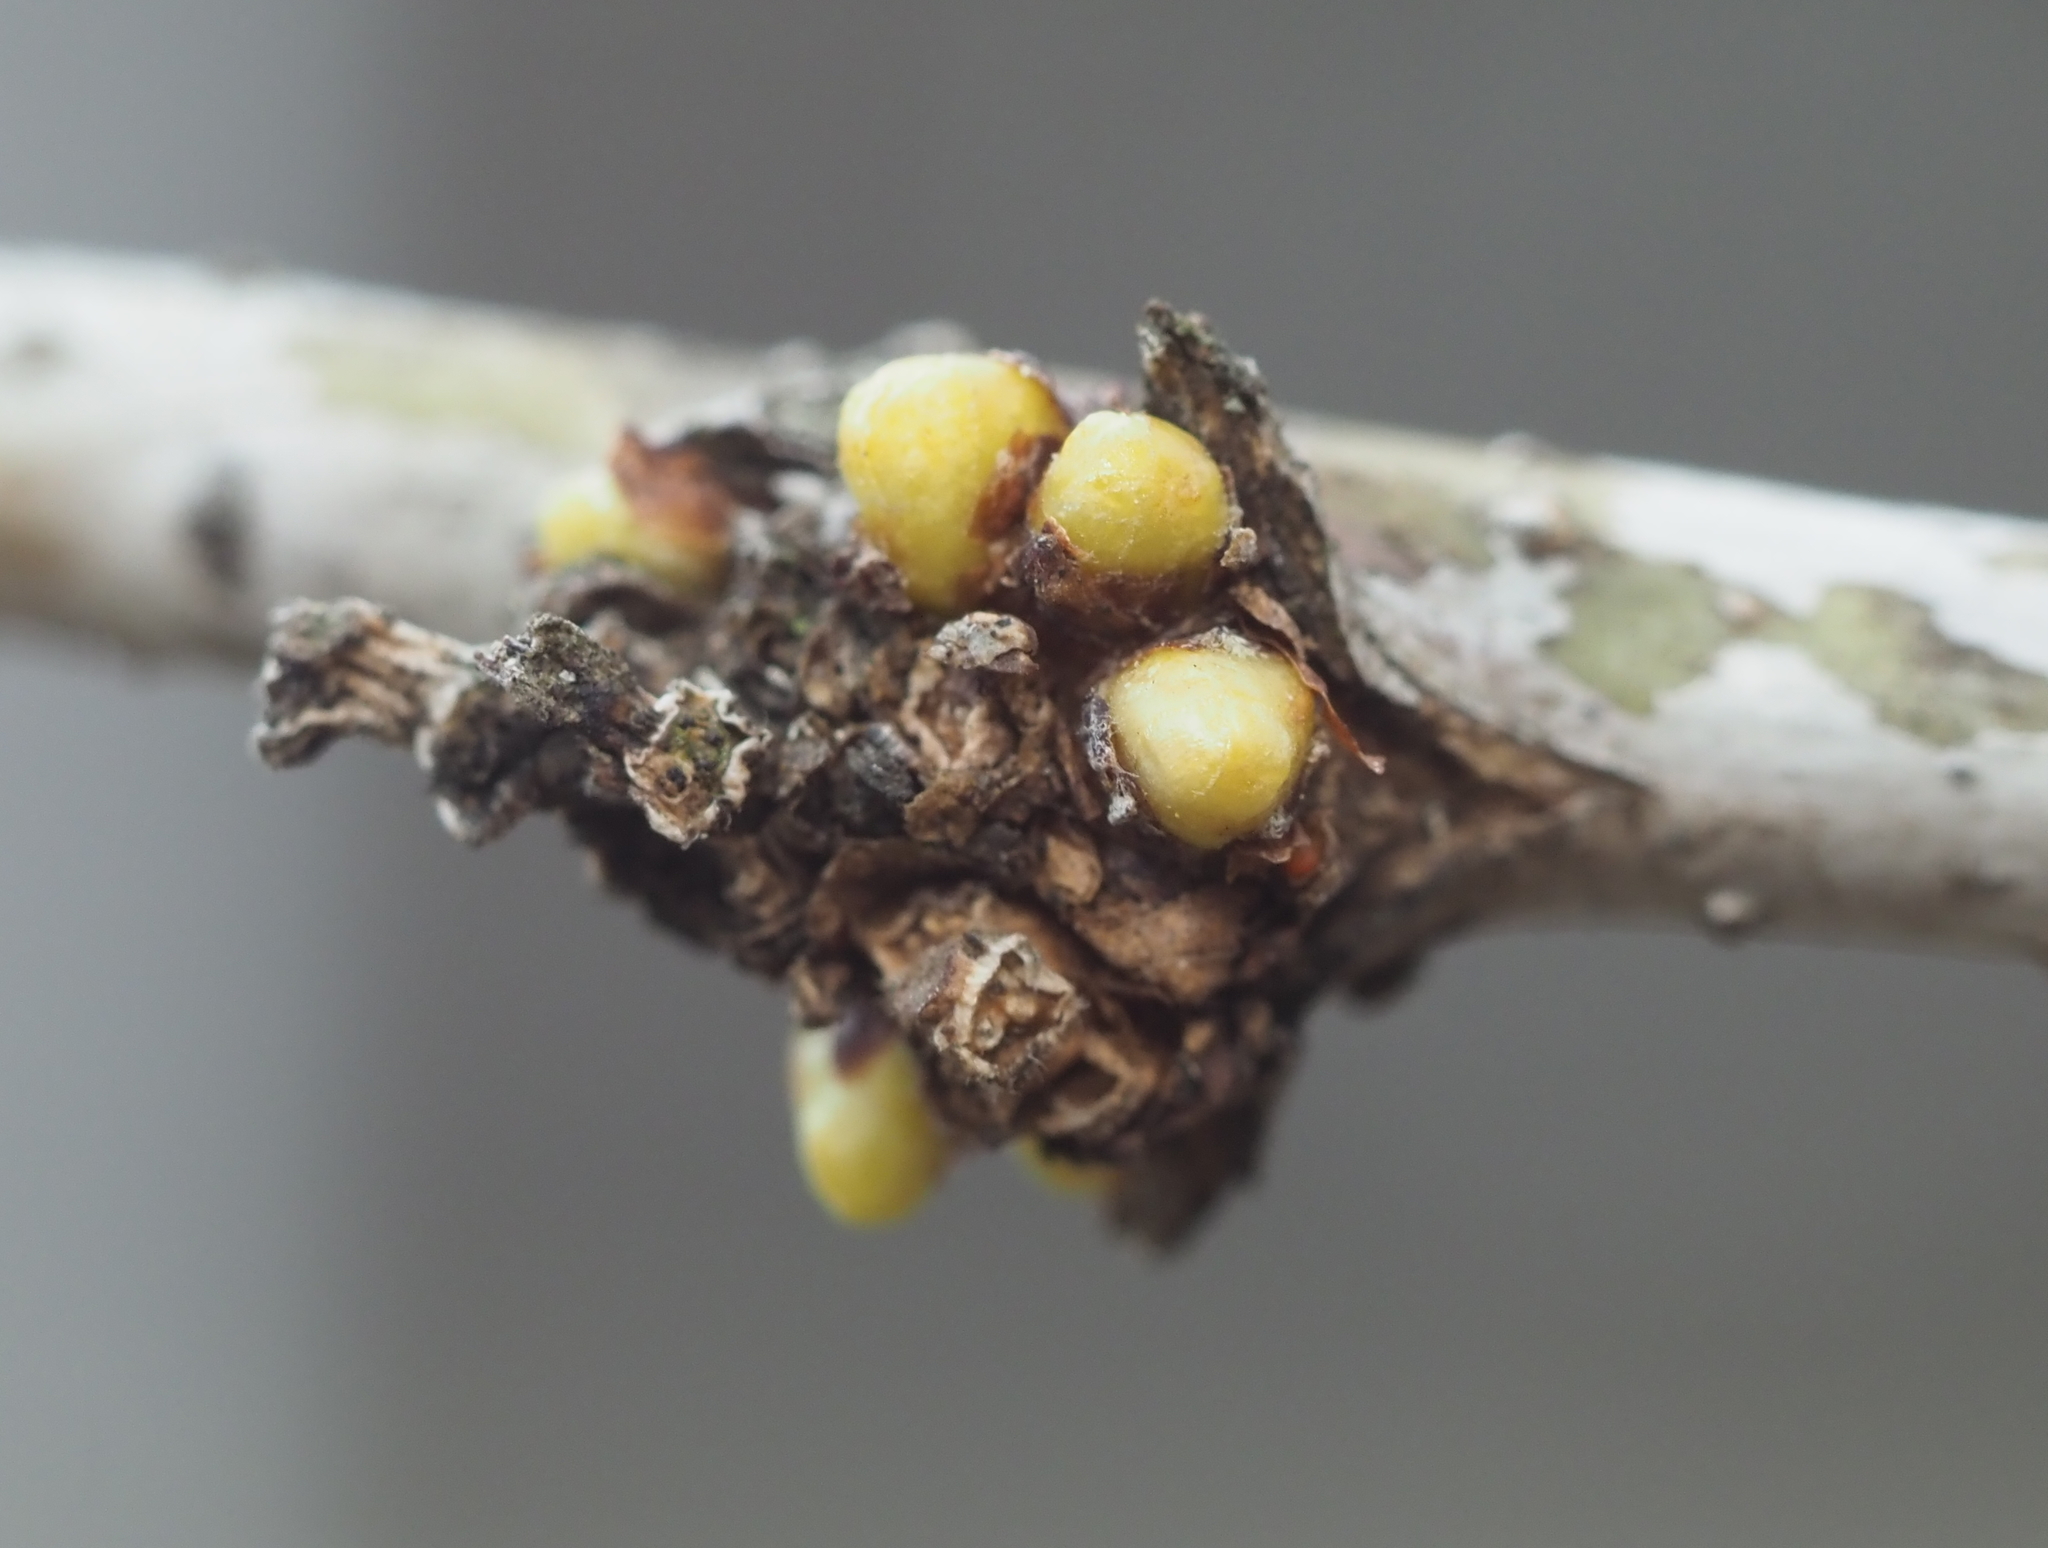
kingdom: Plantae
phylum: Tracheophyta
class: Magnoliopsida
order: Fabales
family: Fabaceae
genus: Gleditsia
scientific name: Gleditsia triacanthos
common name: Common honeylocust
